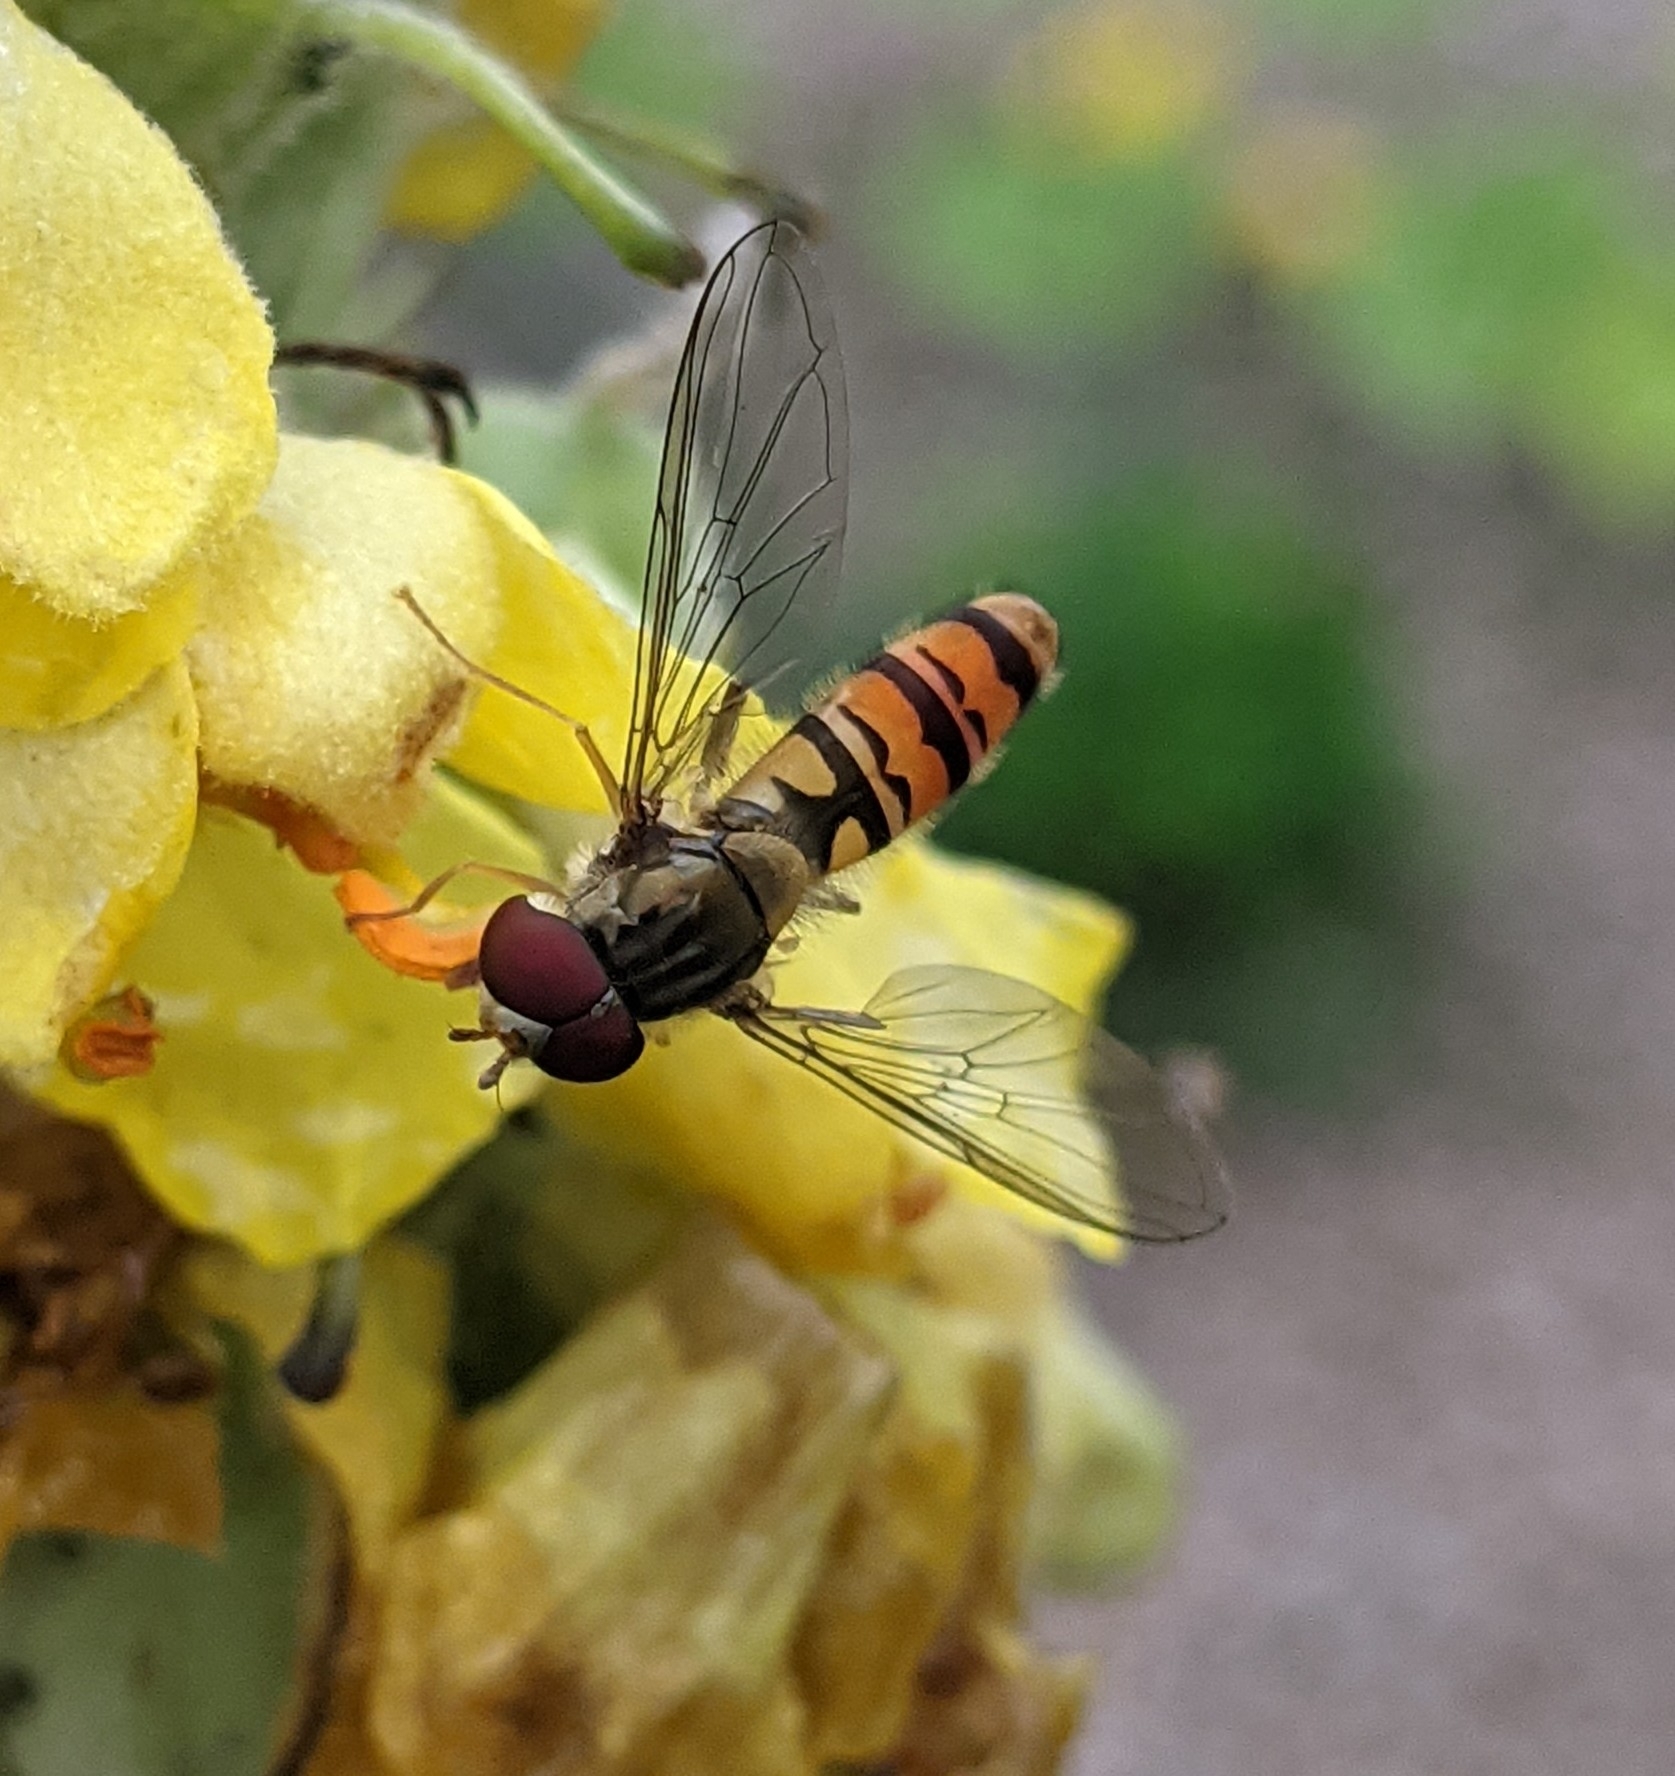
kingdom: Animalia
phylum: Arthropoda
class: Insecta
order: Diptera
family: Syrphidae
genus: Episyrphus
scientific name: Episyrphus balteatus
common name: Marmalade hoverfly
